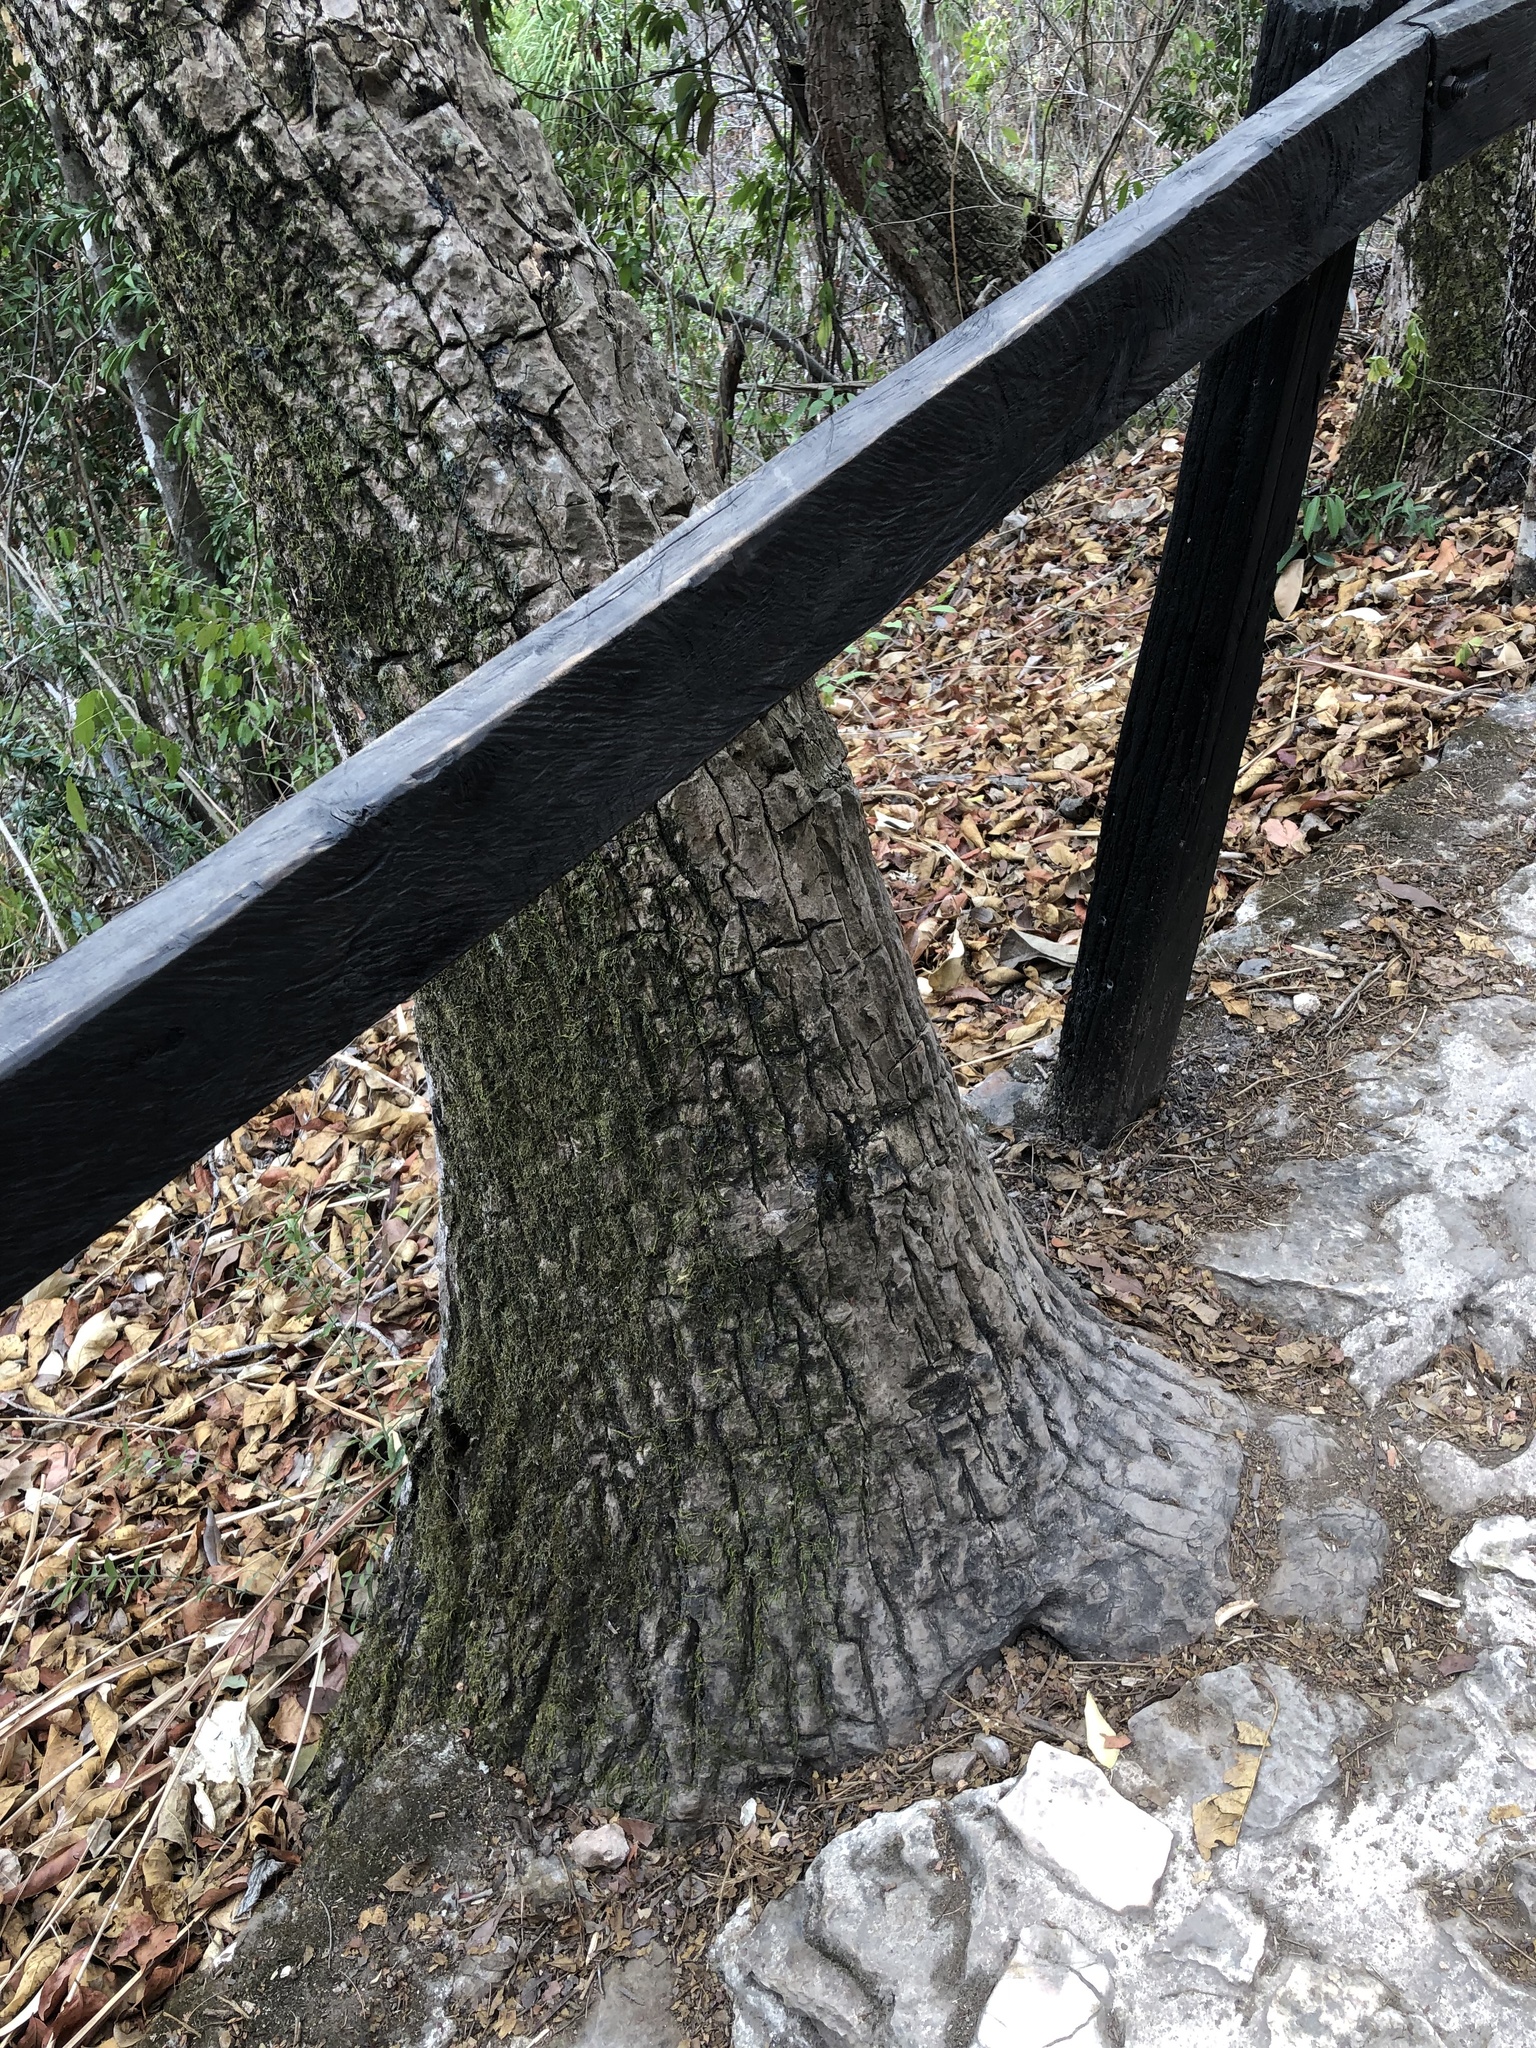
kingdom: Plantae
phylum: Tracheophyta
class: Liliopsida
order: Asparagales
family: Asparagaceae
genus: Beaucarnea
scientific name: Beaucarnea goldmanii
